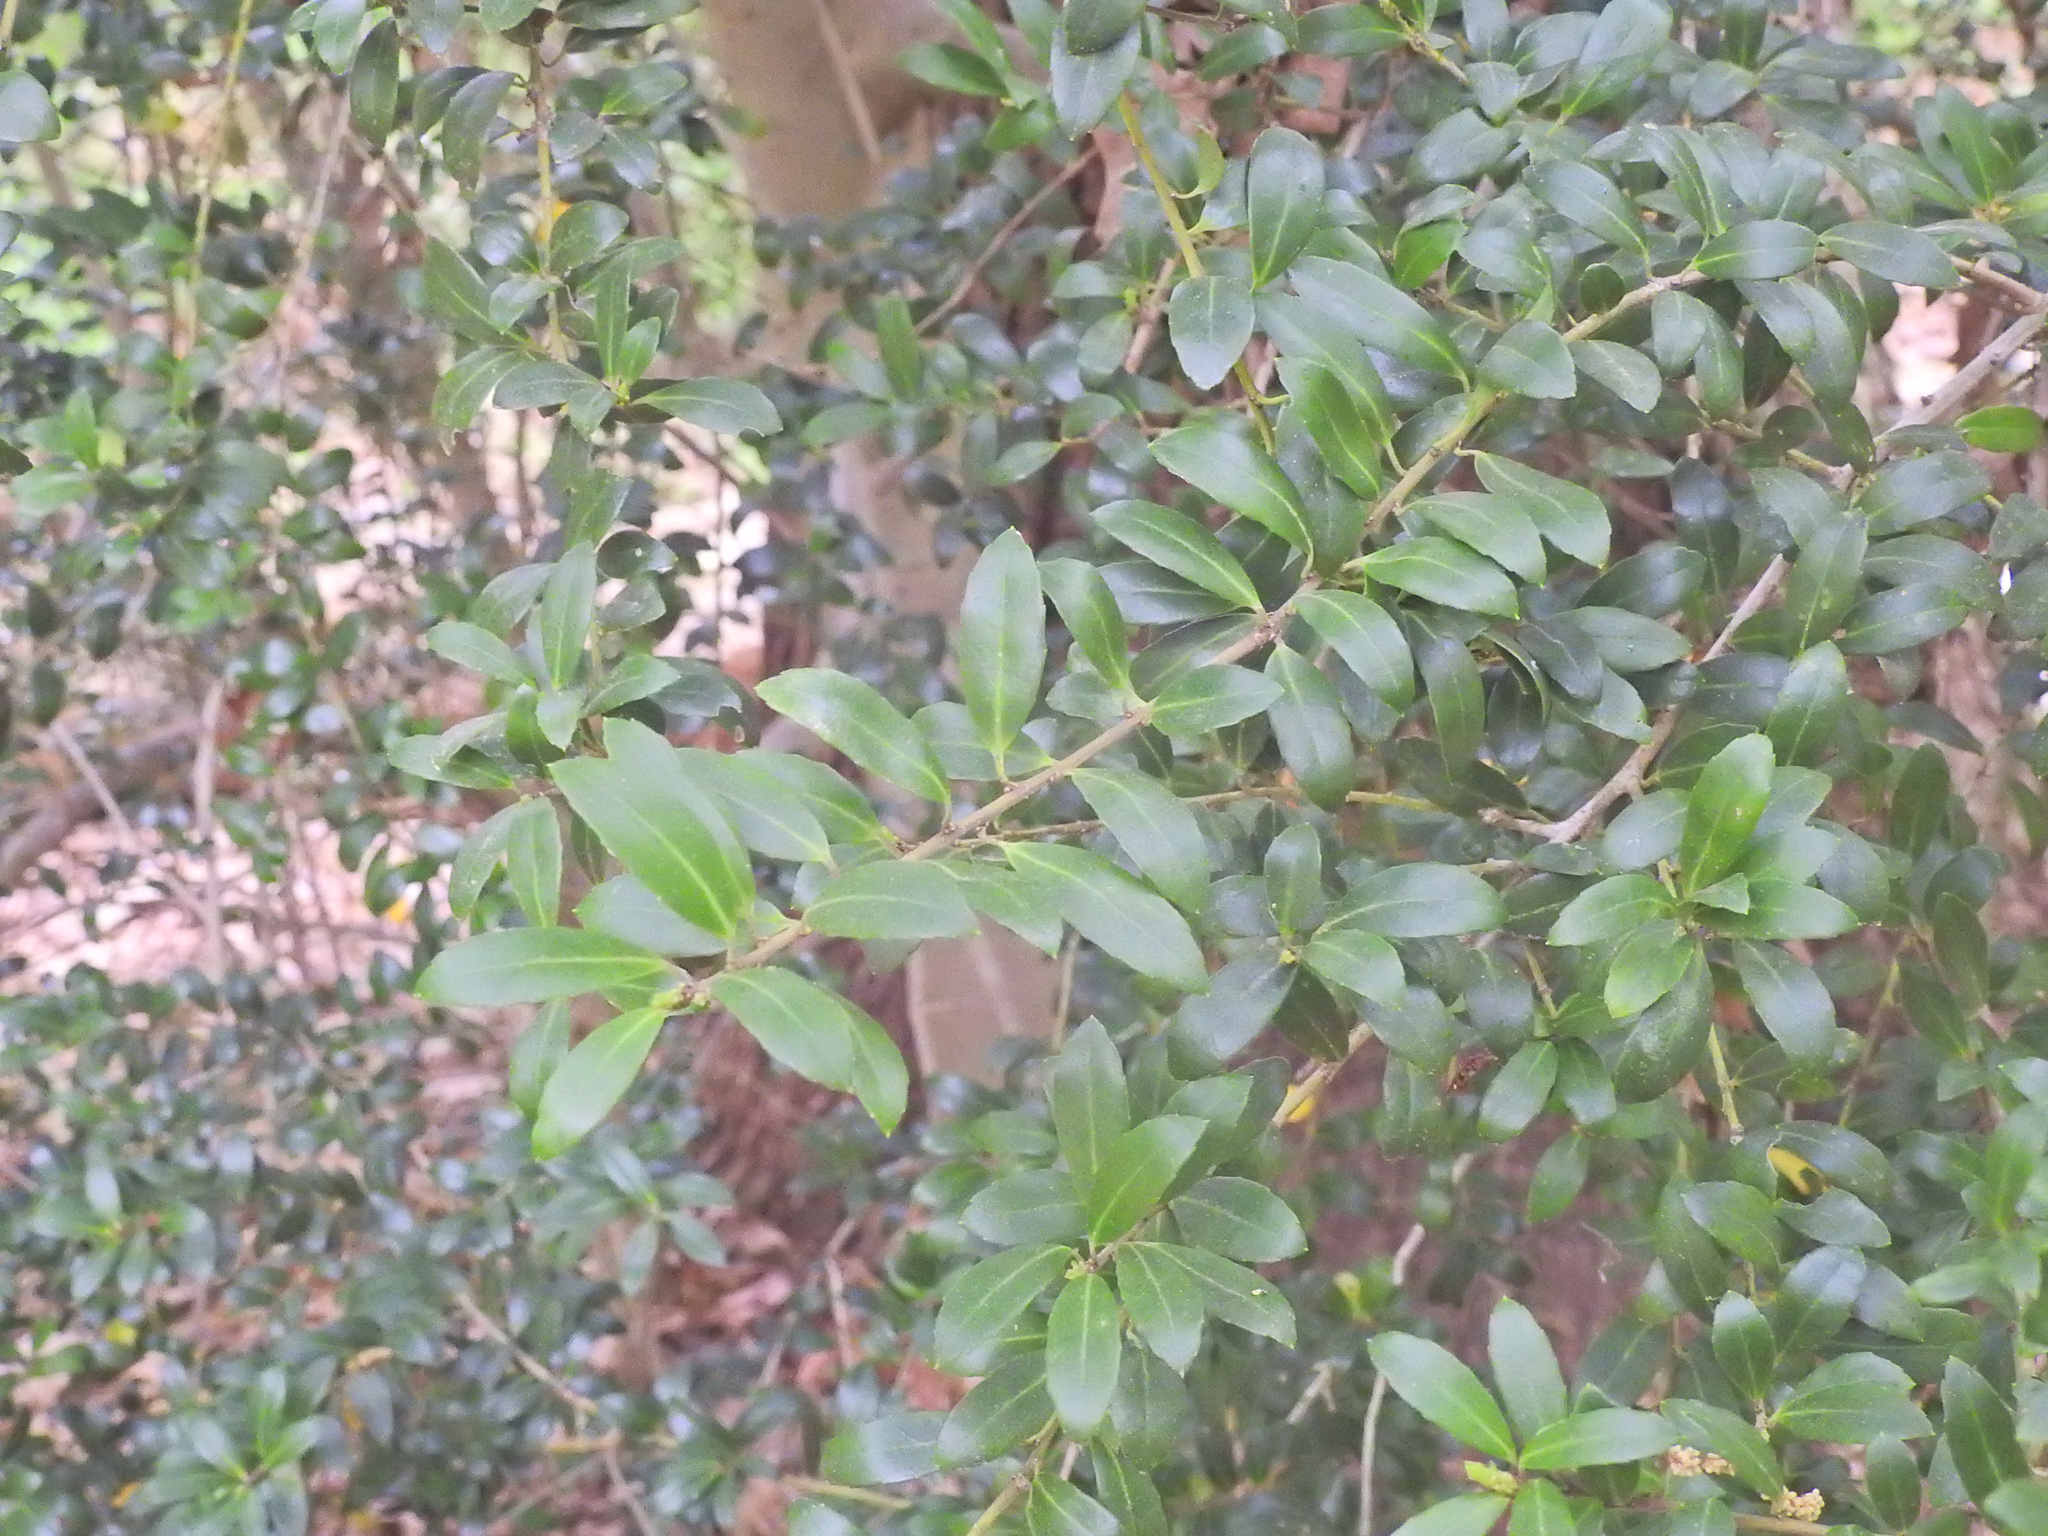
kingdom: Plantae
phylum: Tracheophyta
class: Magnoliopsida
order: Aquifoliales
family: Aquifoliaceae
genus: Ilex
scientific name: Ilex crenata
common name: Japanese holly
